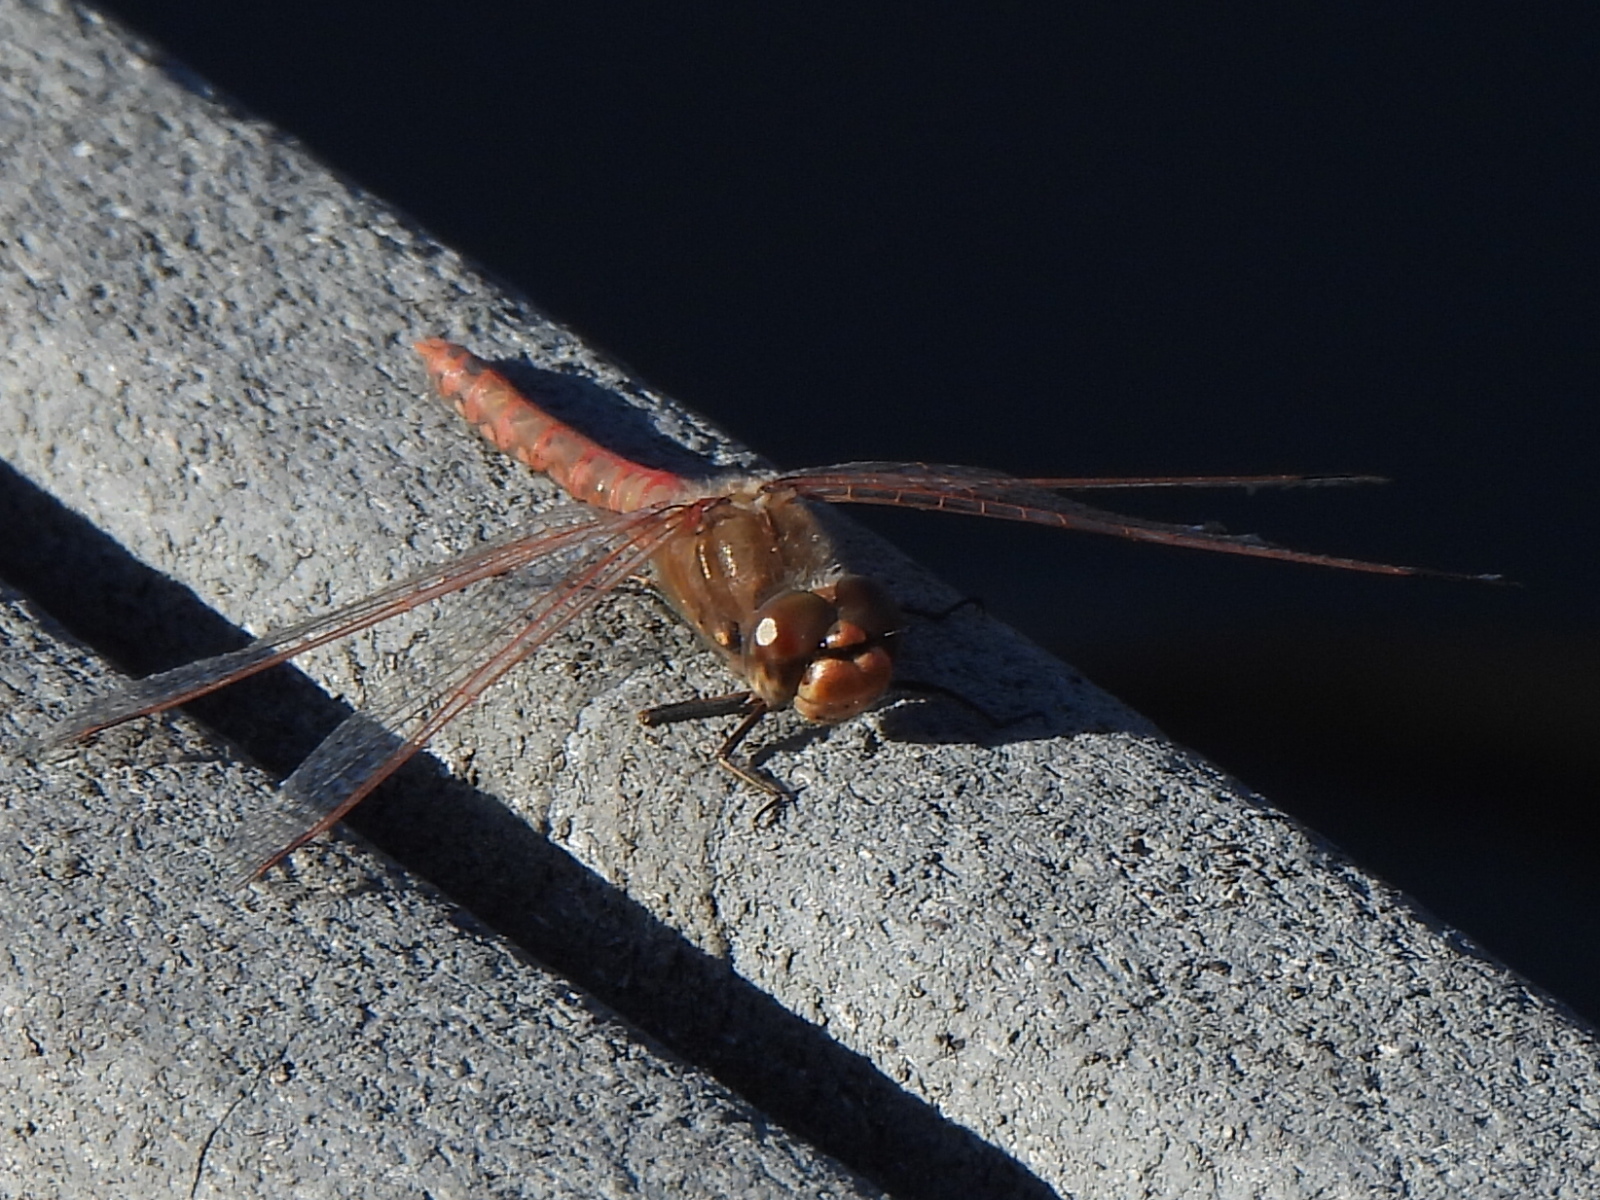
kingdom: Animalia
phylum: Arthropoda
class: Insecta
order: Odonata
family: Libellulidae
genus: Sympetrum
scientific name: Sympetrum corruptum
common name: Variegated meadowhawk
